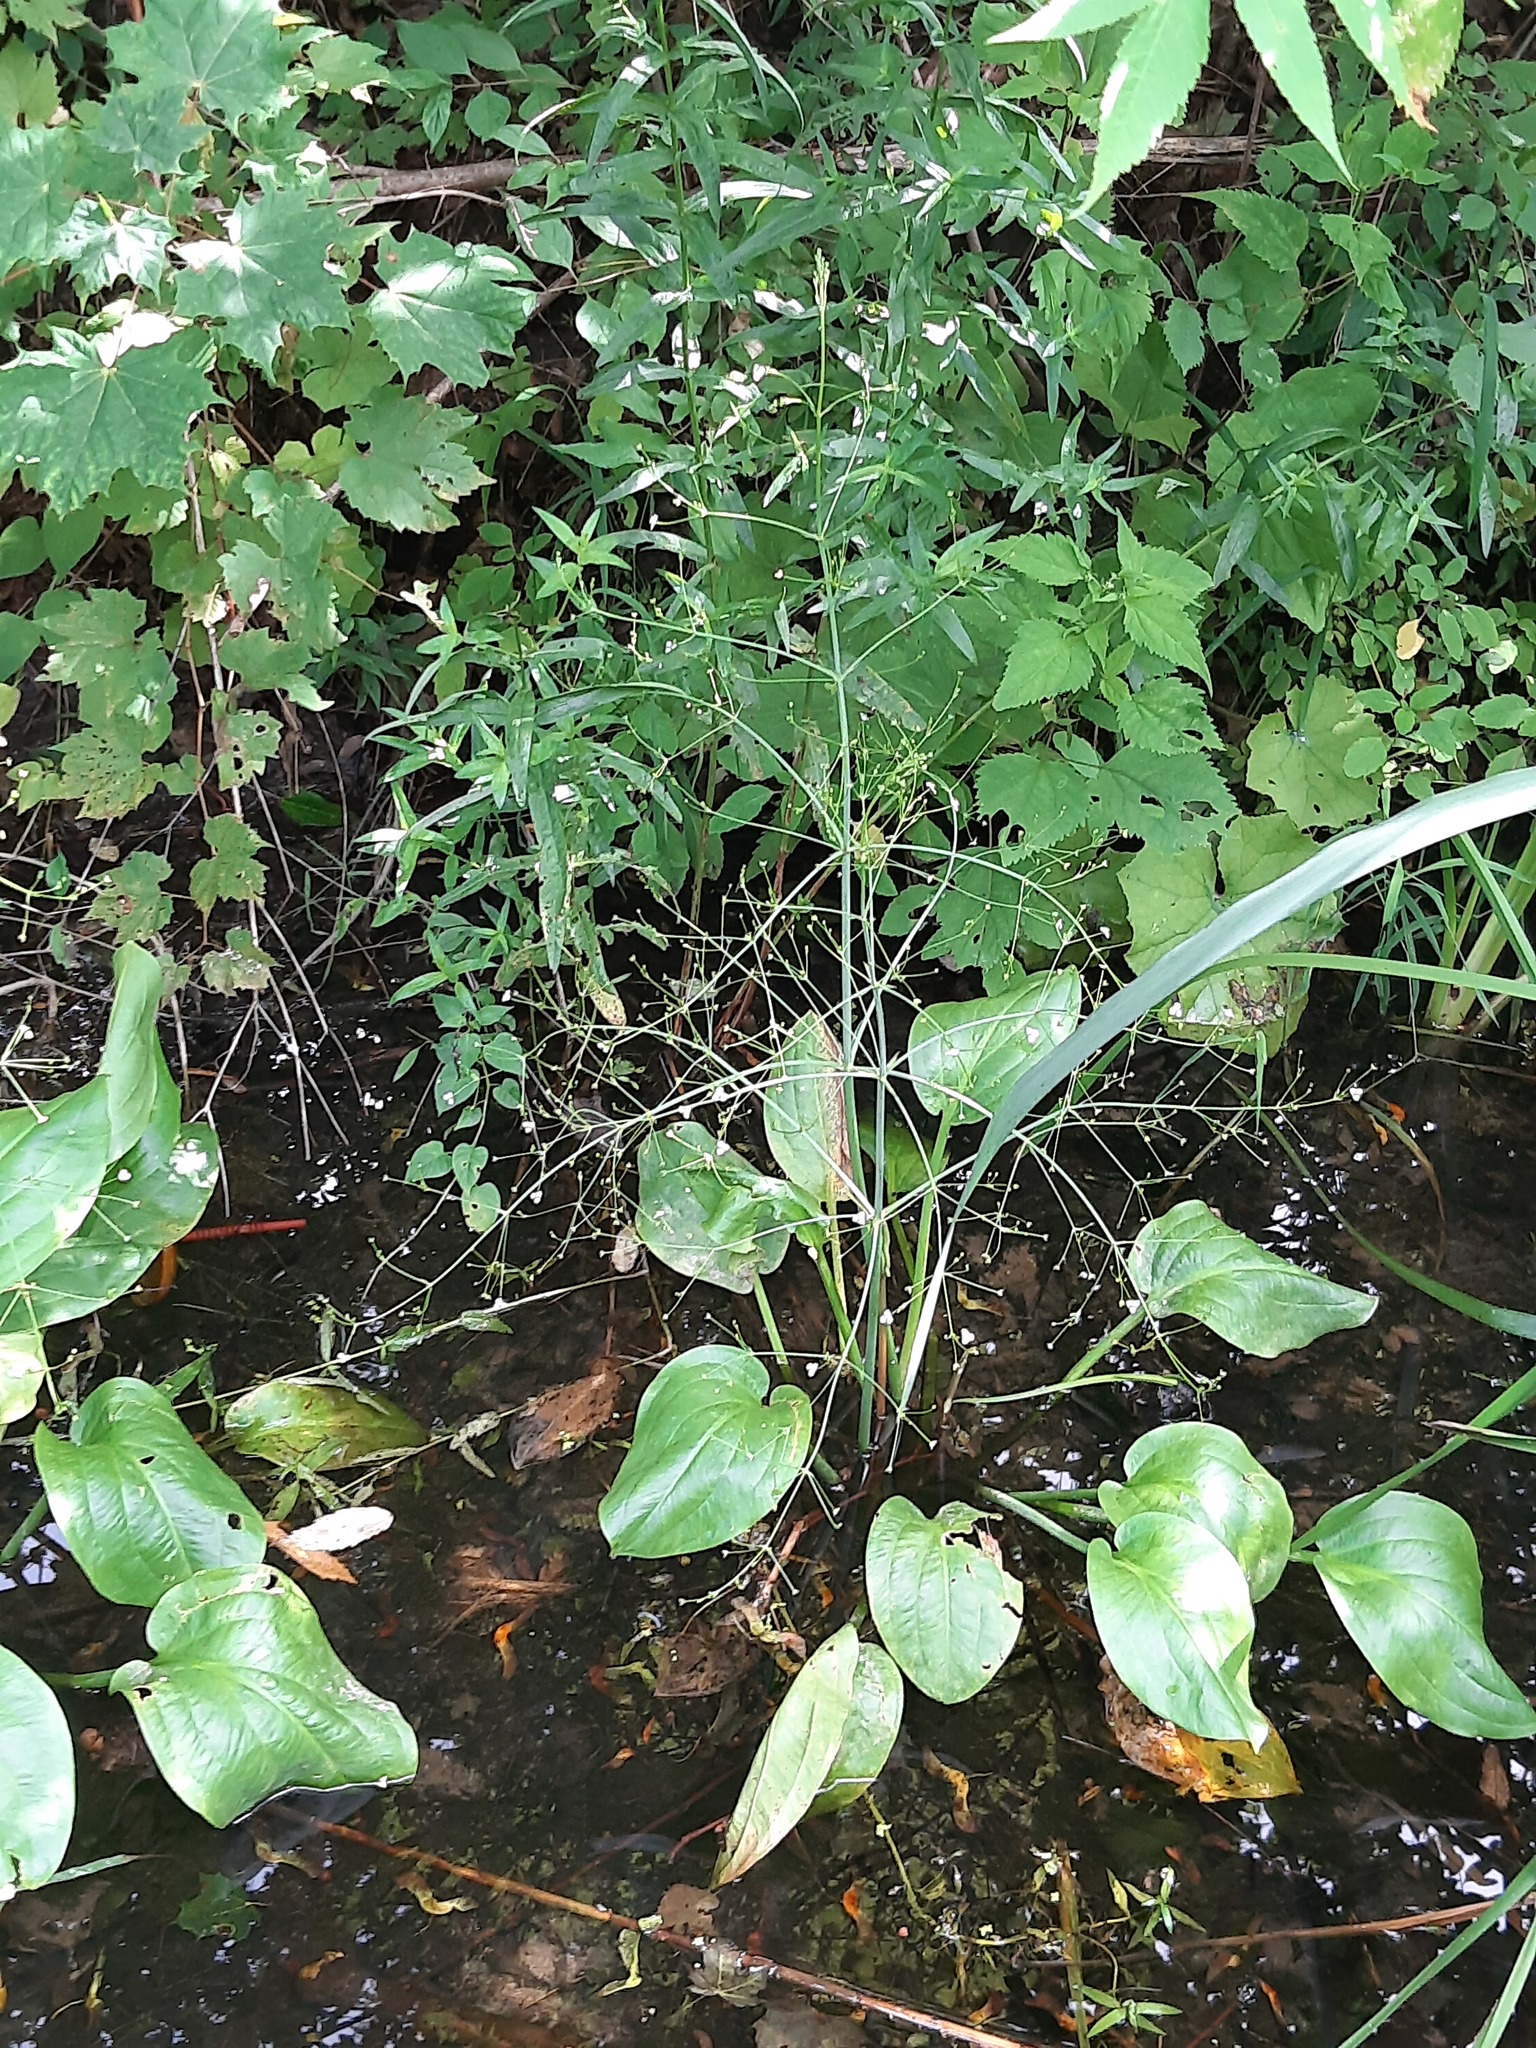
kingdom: Plantae
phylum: Tracheophyta
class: Liliopsida
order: Alismatales
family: Alismataceae
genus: Alisma
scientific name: Alisma triviale
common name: Northern water-plantain
